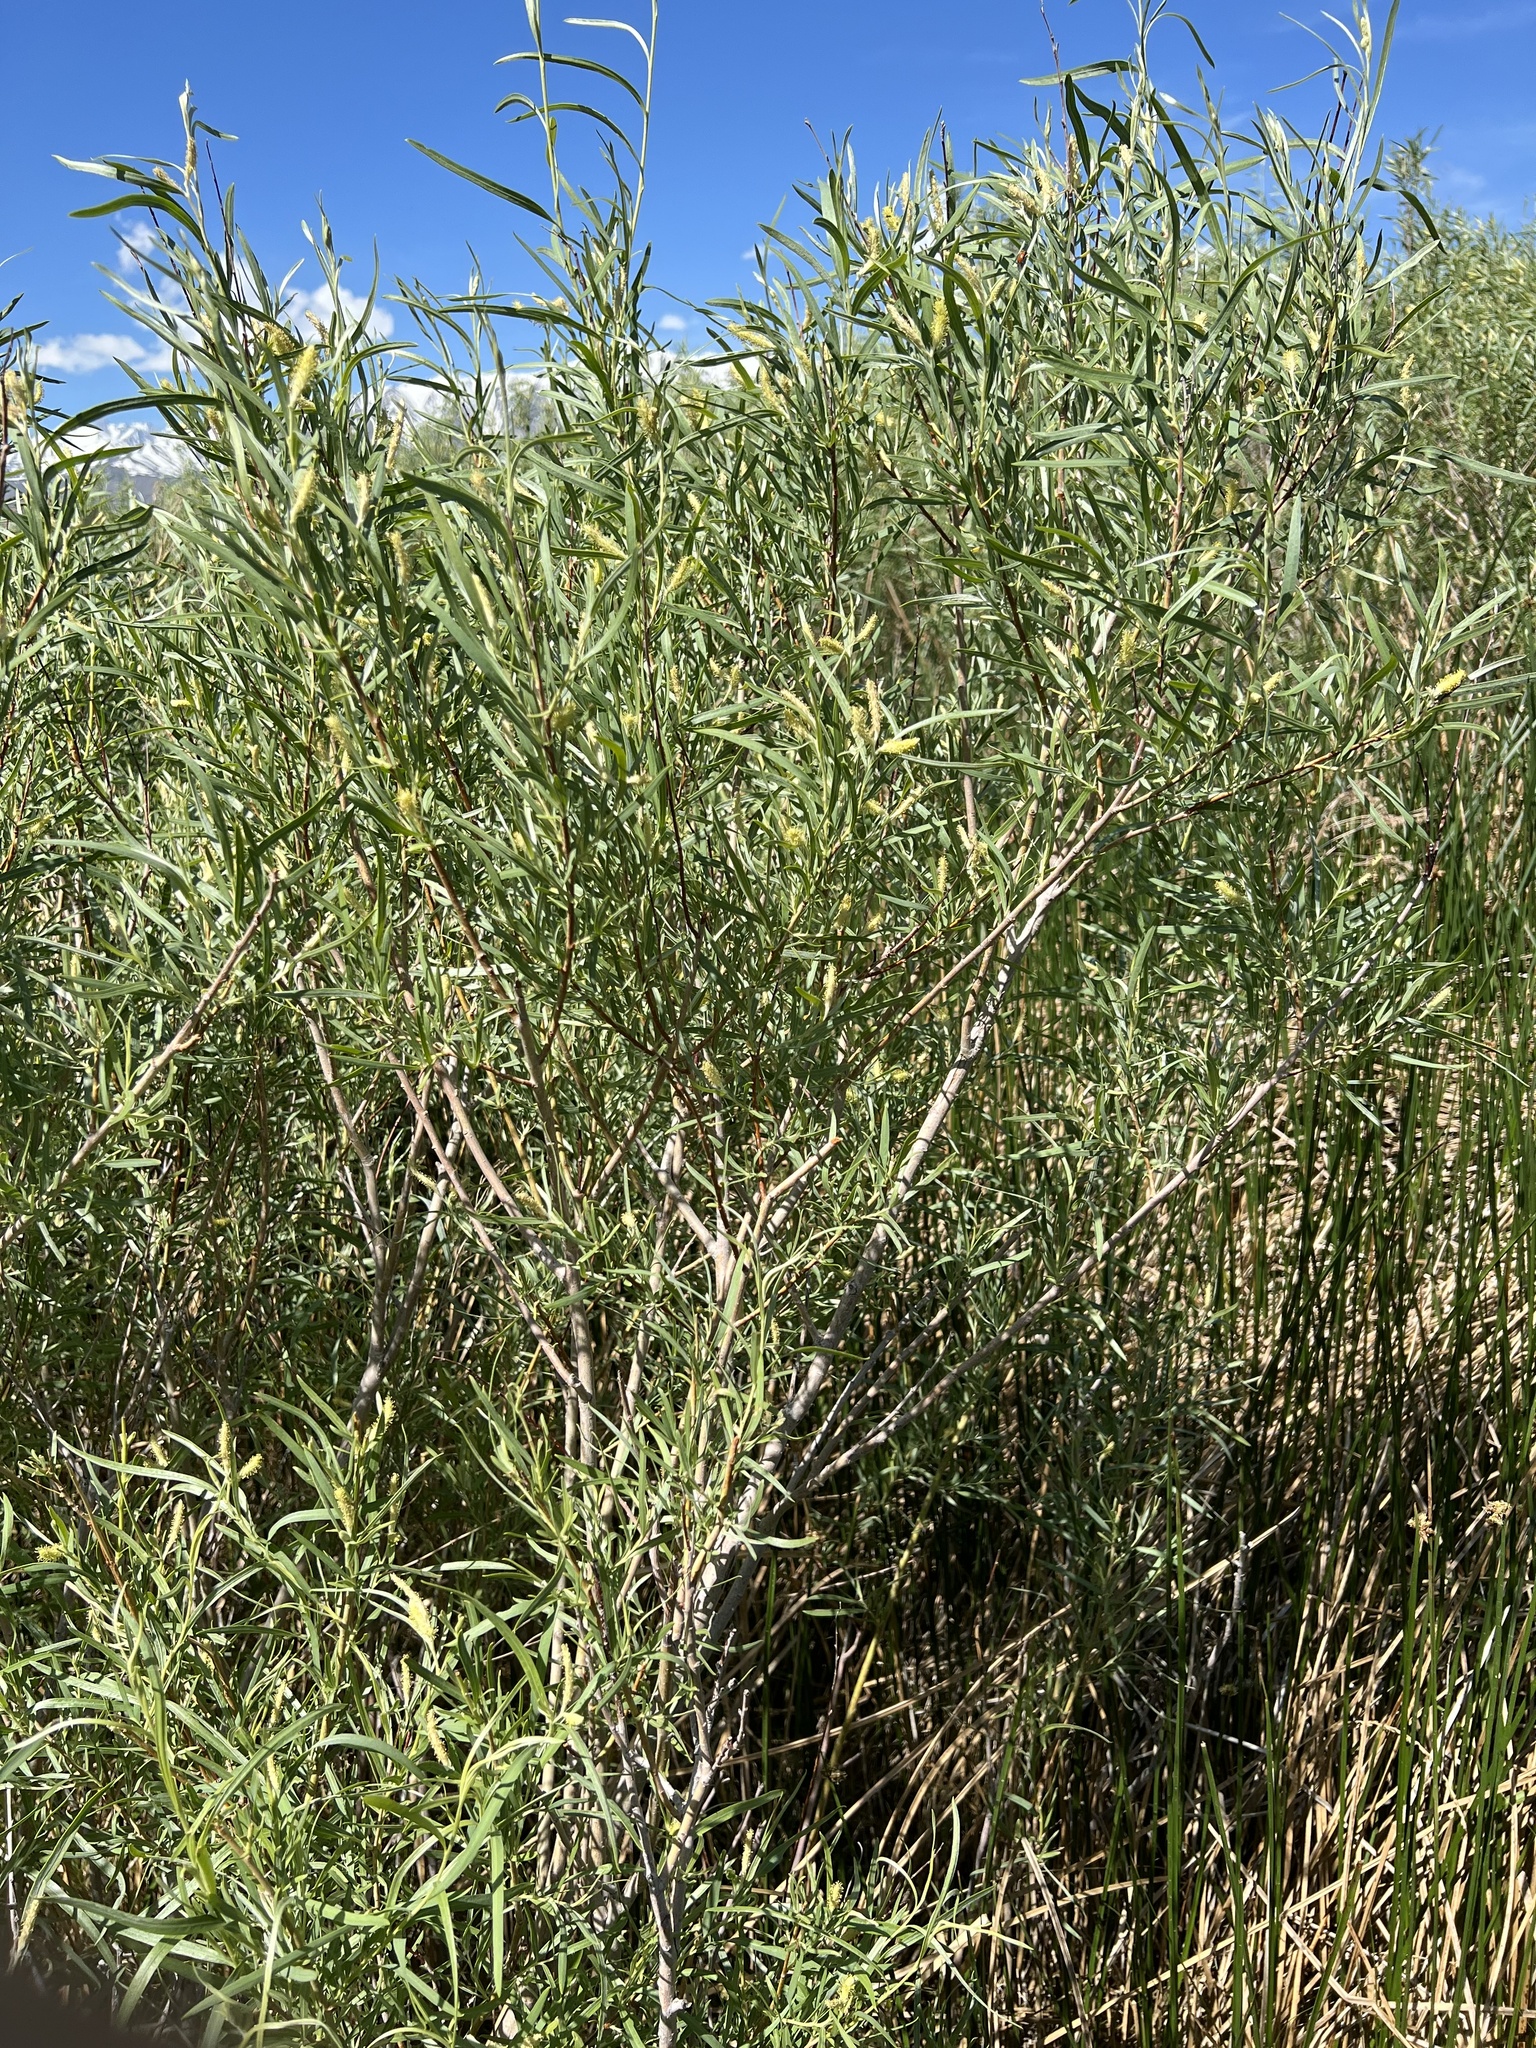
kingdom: Plantae
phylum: Tracheophyta
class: Magnoliopsida
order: Malpighiales
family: Salicaceae
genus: Salix
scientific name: Salix exigua
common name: Coyote willow
